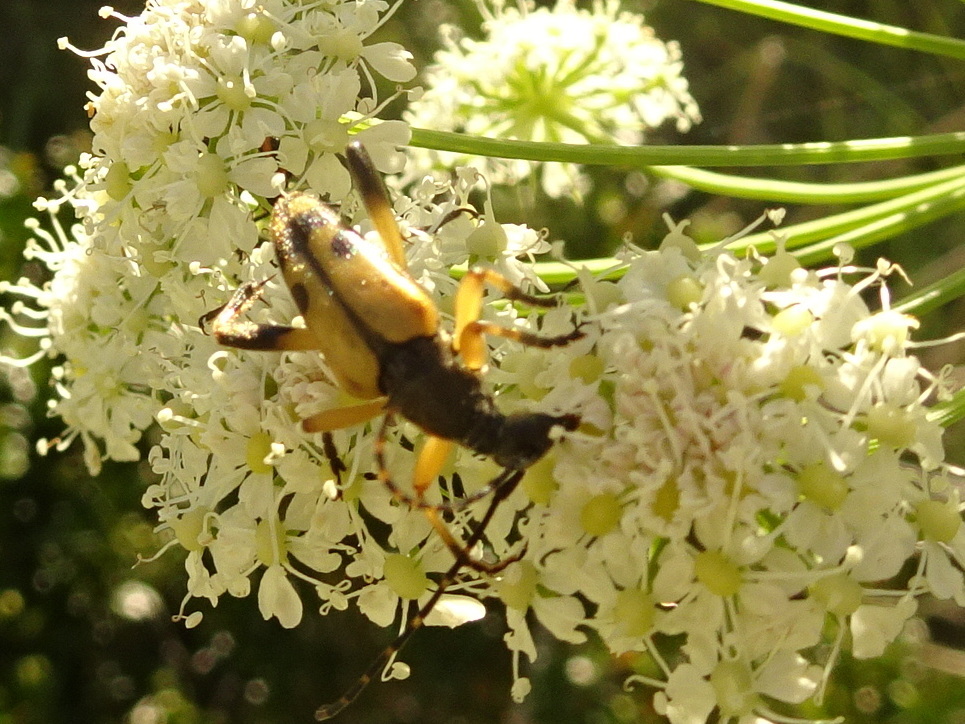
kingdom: Animalia
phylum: Arthropoda
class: Insecta
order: Coleoptera
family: Cerambycidae
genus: Rutpela
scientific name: Rutpela maculata
